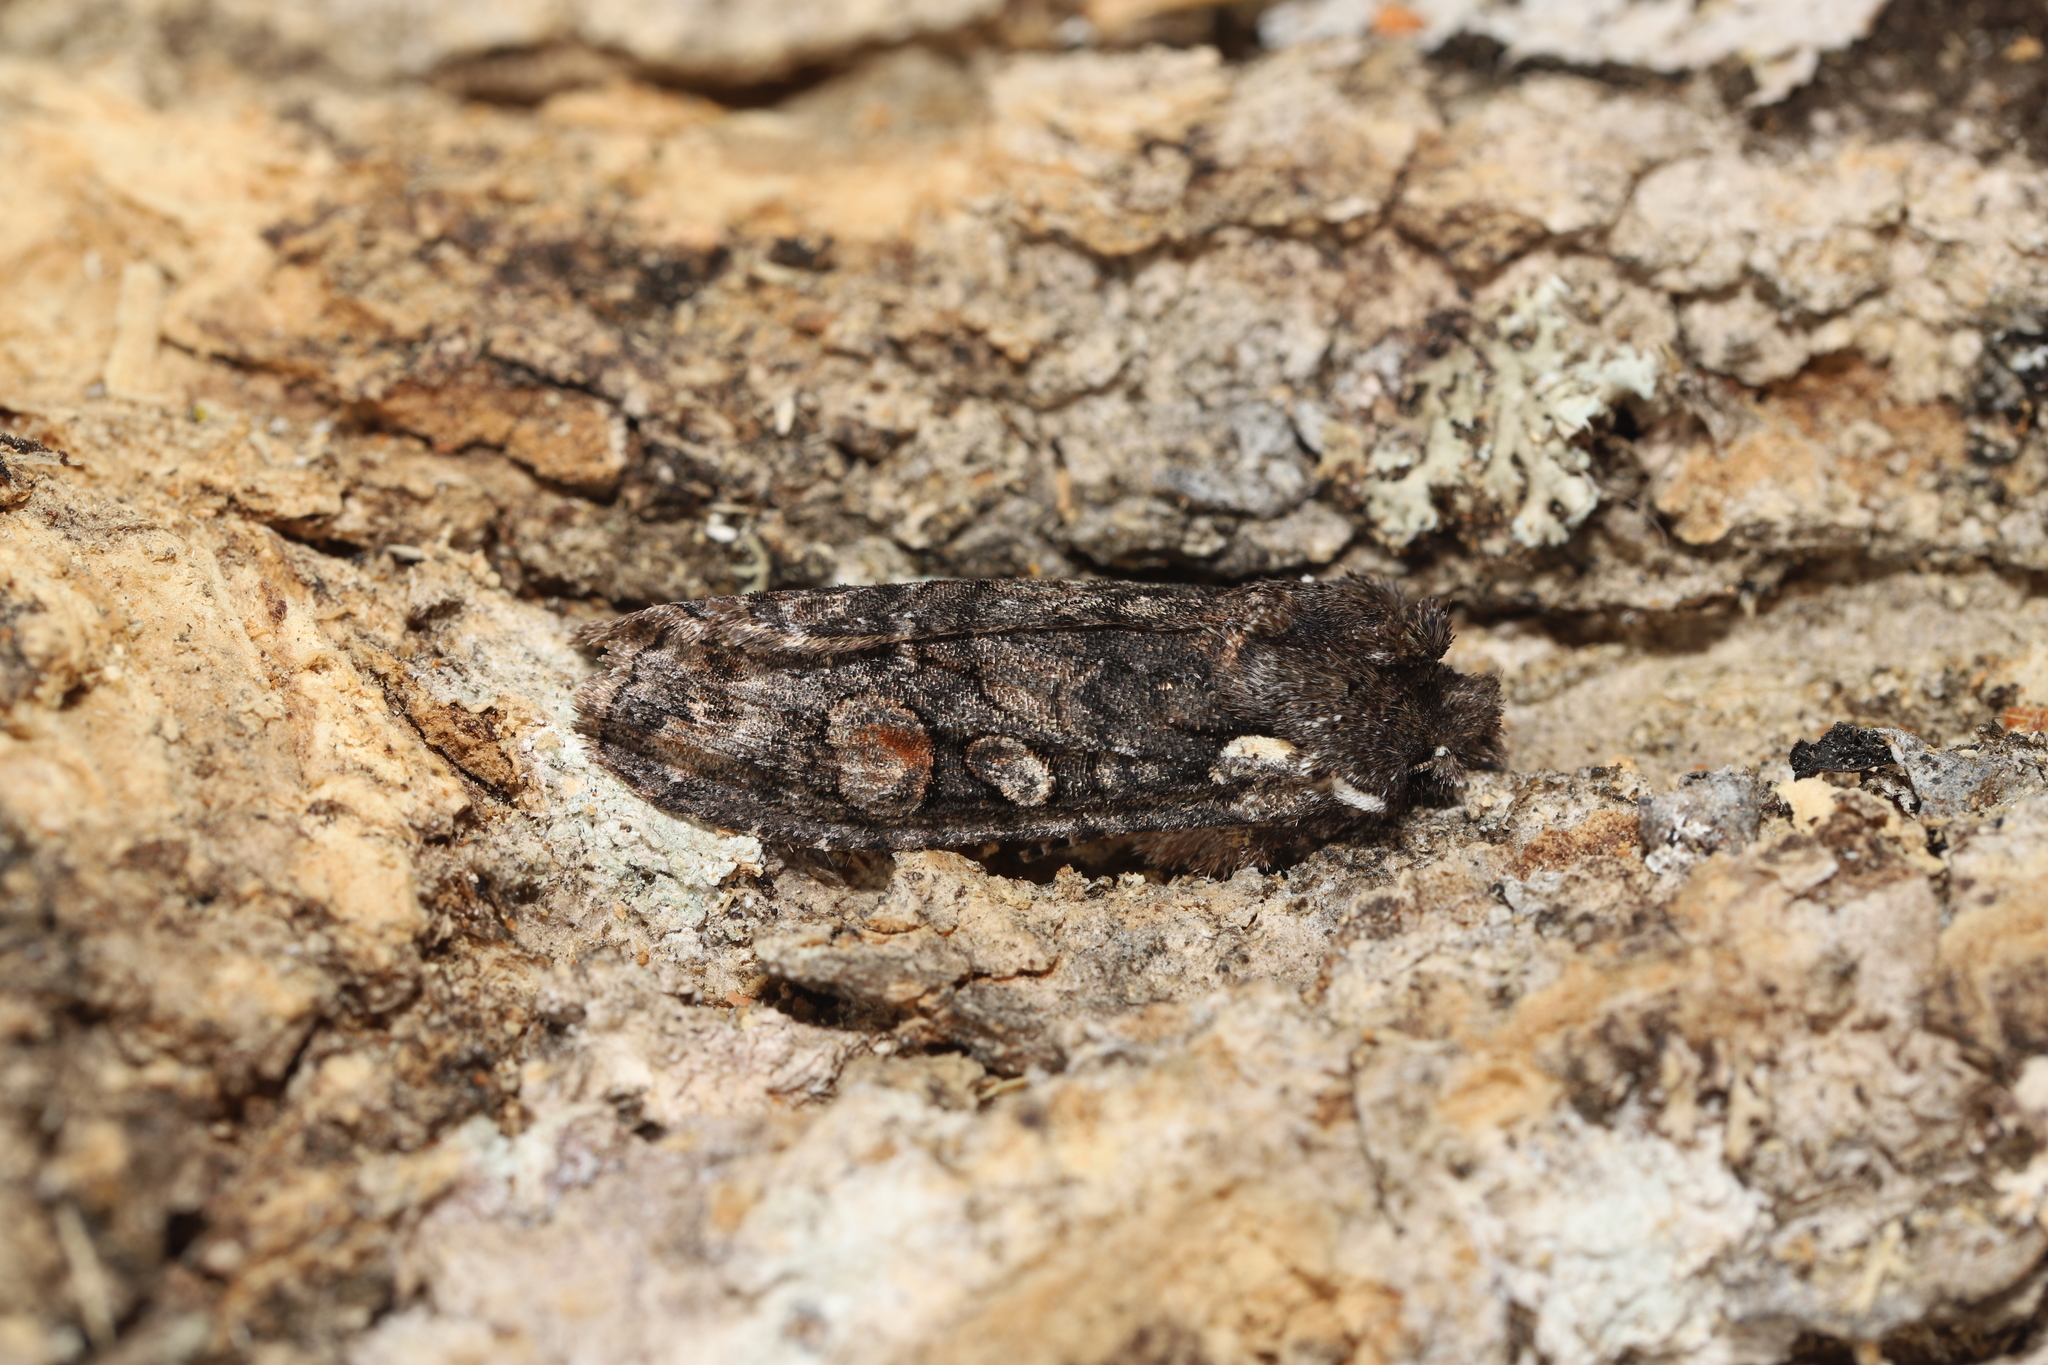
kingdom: Animalia
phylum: Arthropoda
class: Insecta
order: Lepidoptera
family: Noctuidae
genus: Lithophane
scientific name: Lithophane pexata
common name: Plush-naped pinion moth
